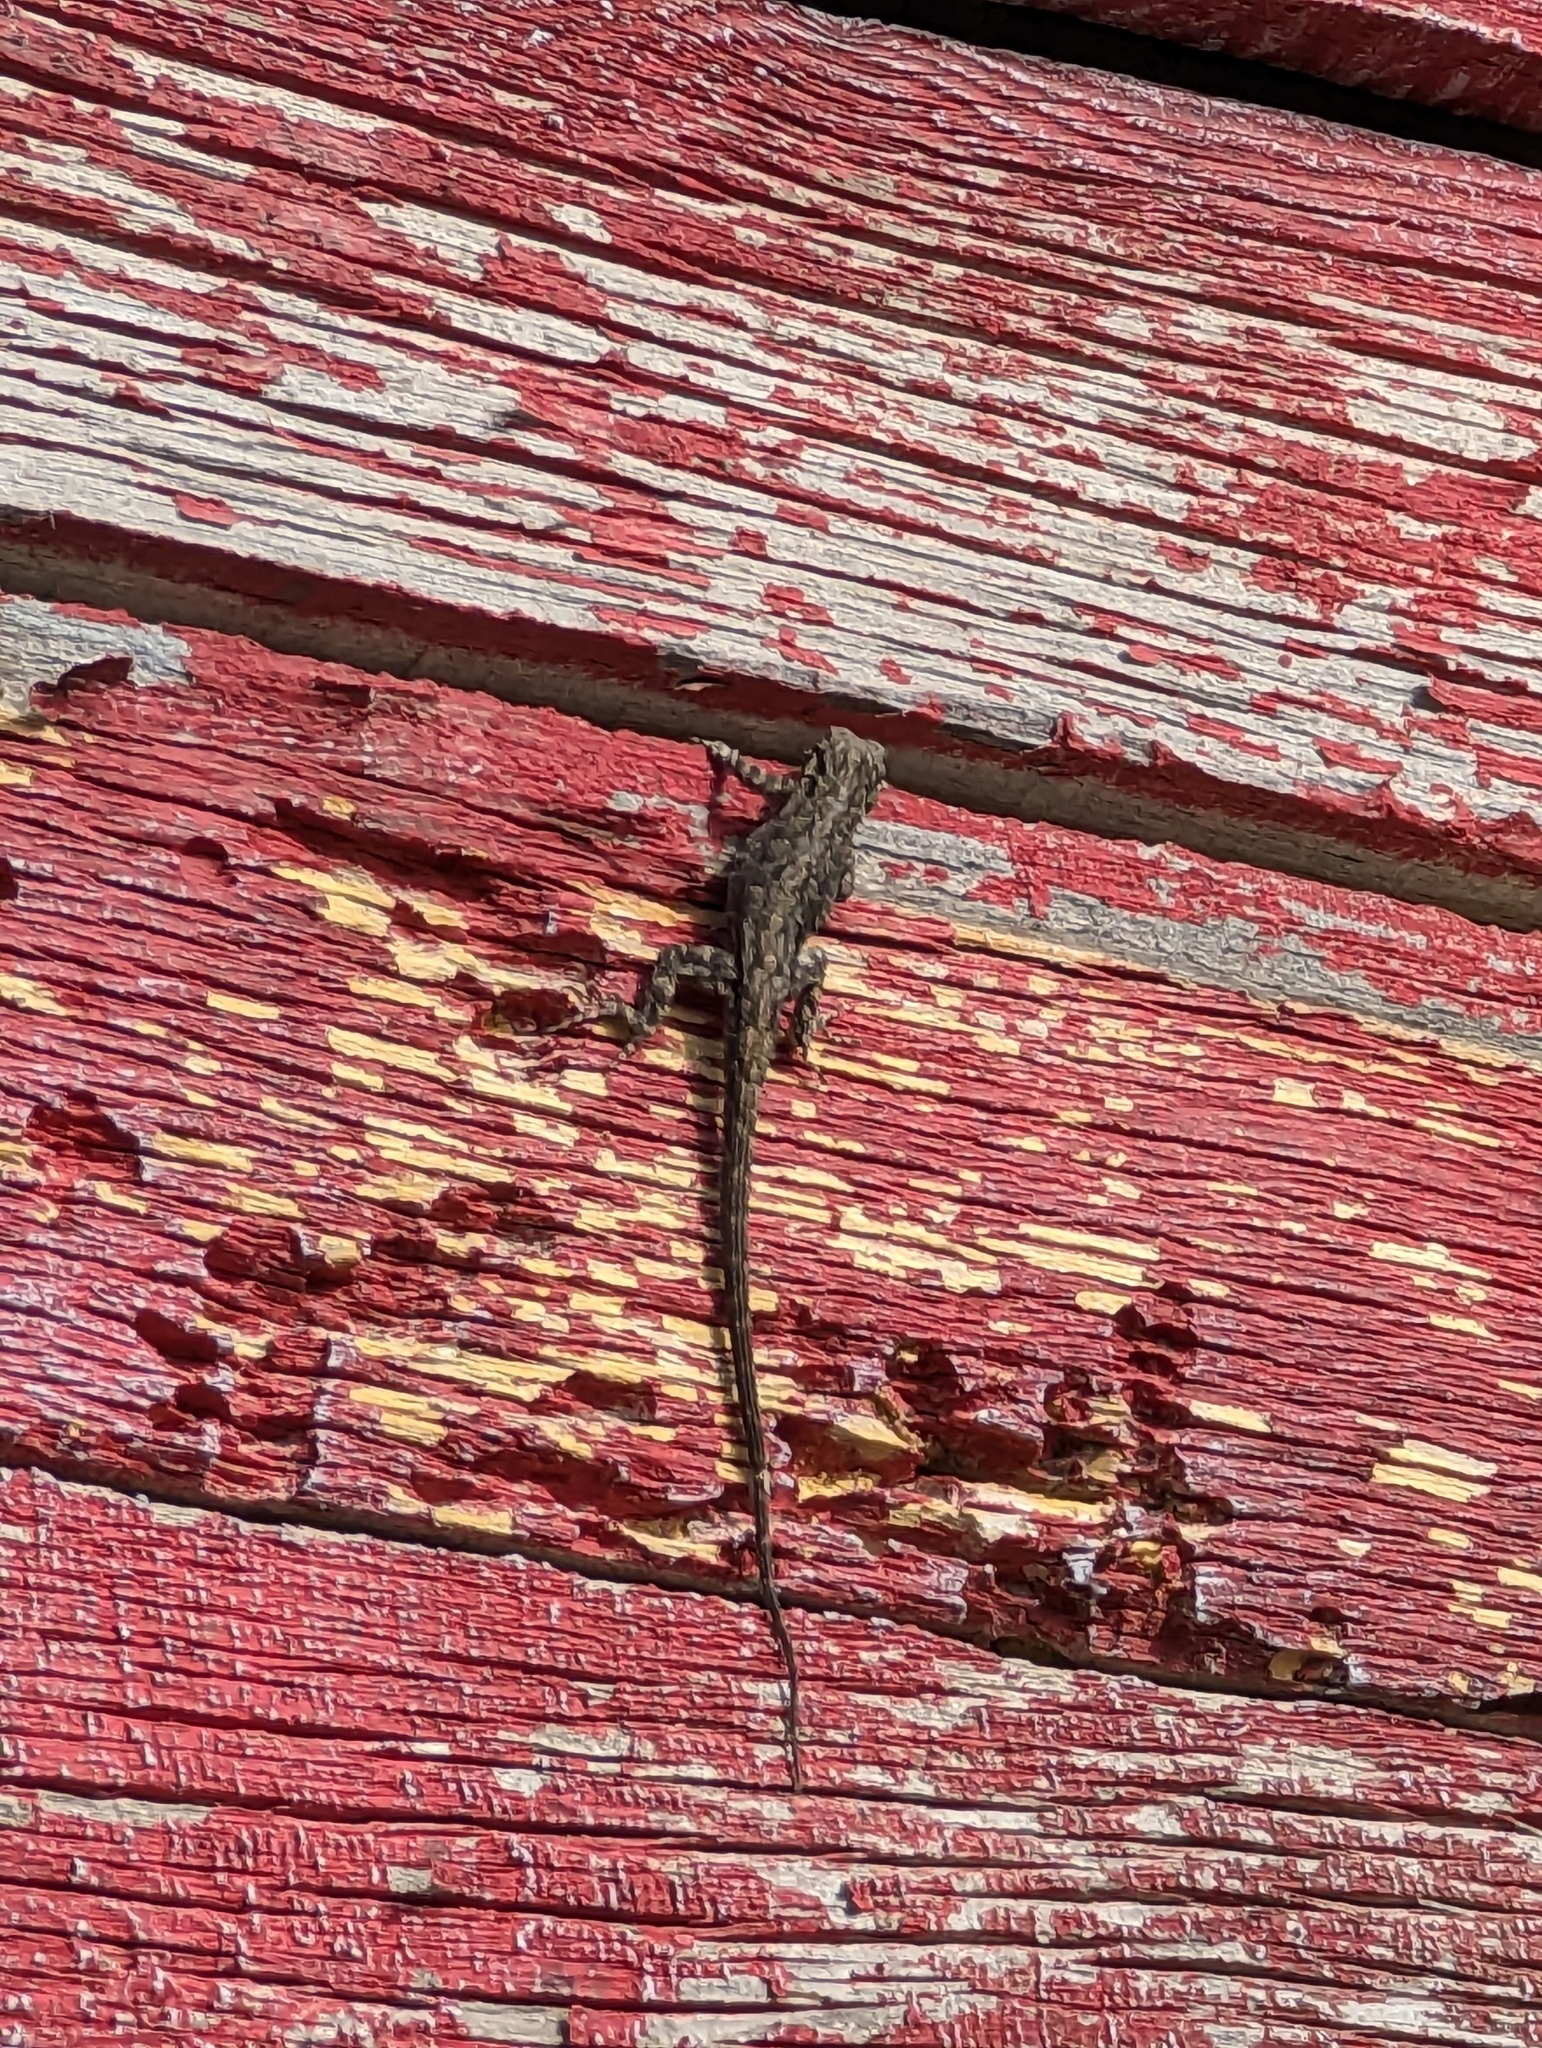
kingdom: Animalia
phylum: Chordata
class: Squamata
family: Phrynosomatidae
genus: Urosaurus
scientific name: Urosaurus ornatus
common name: Ornate tree lizard
